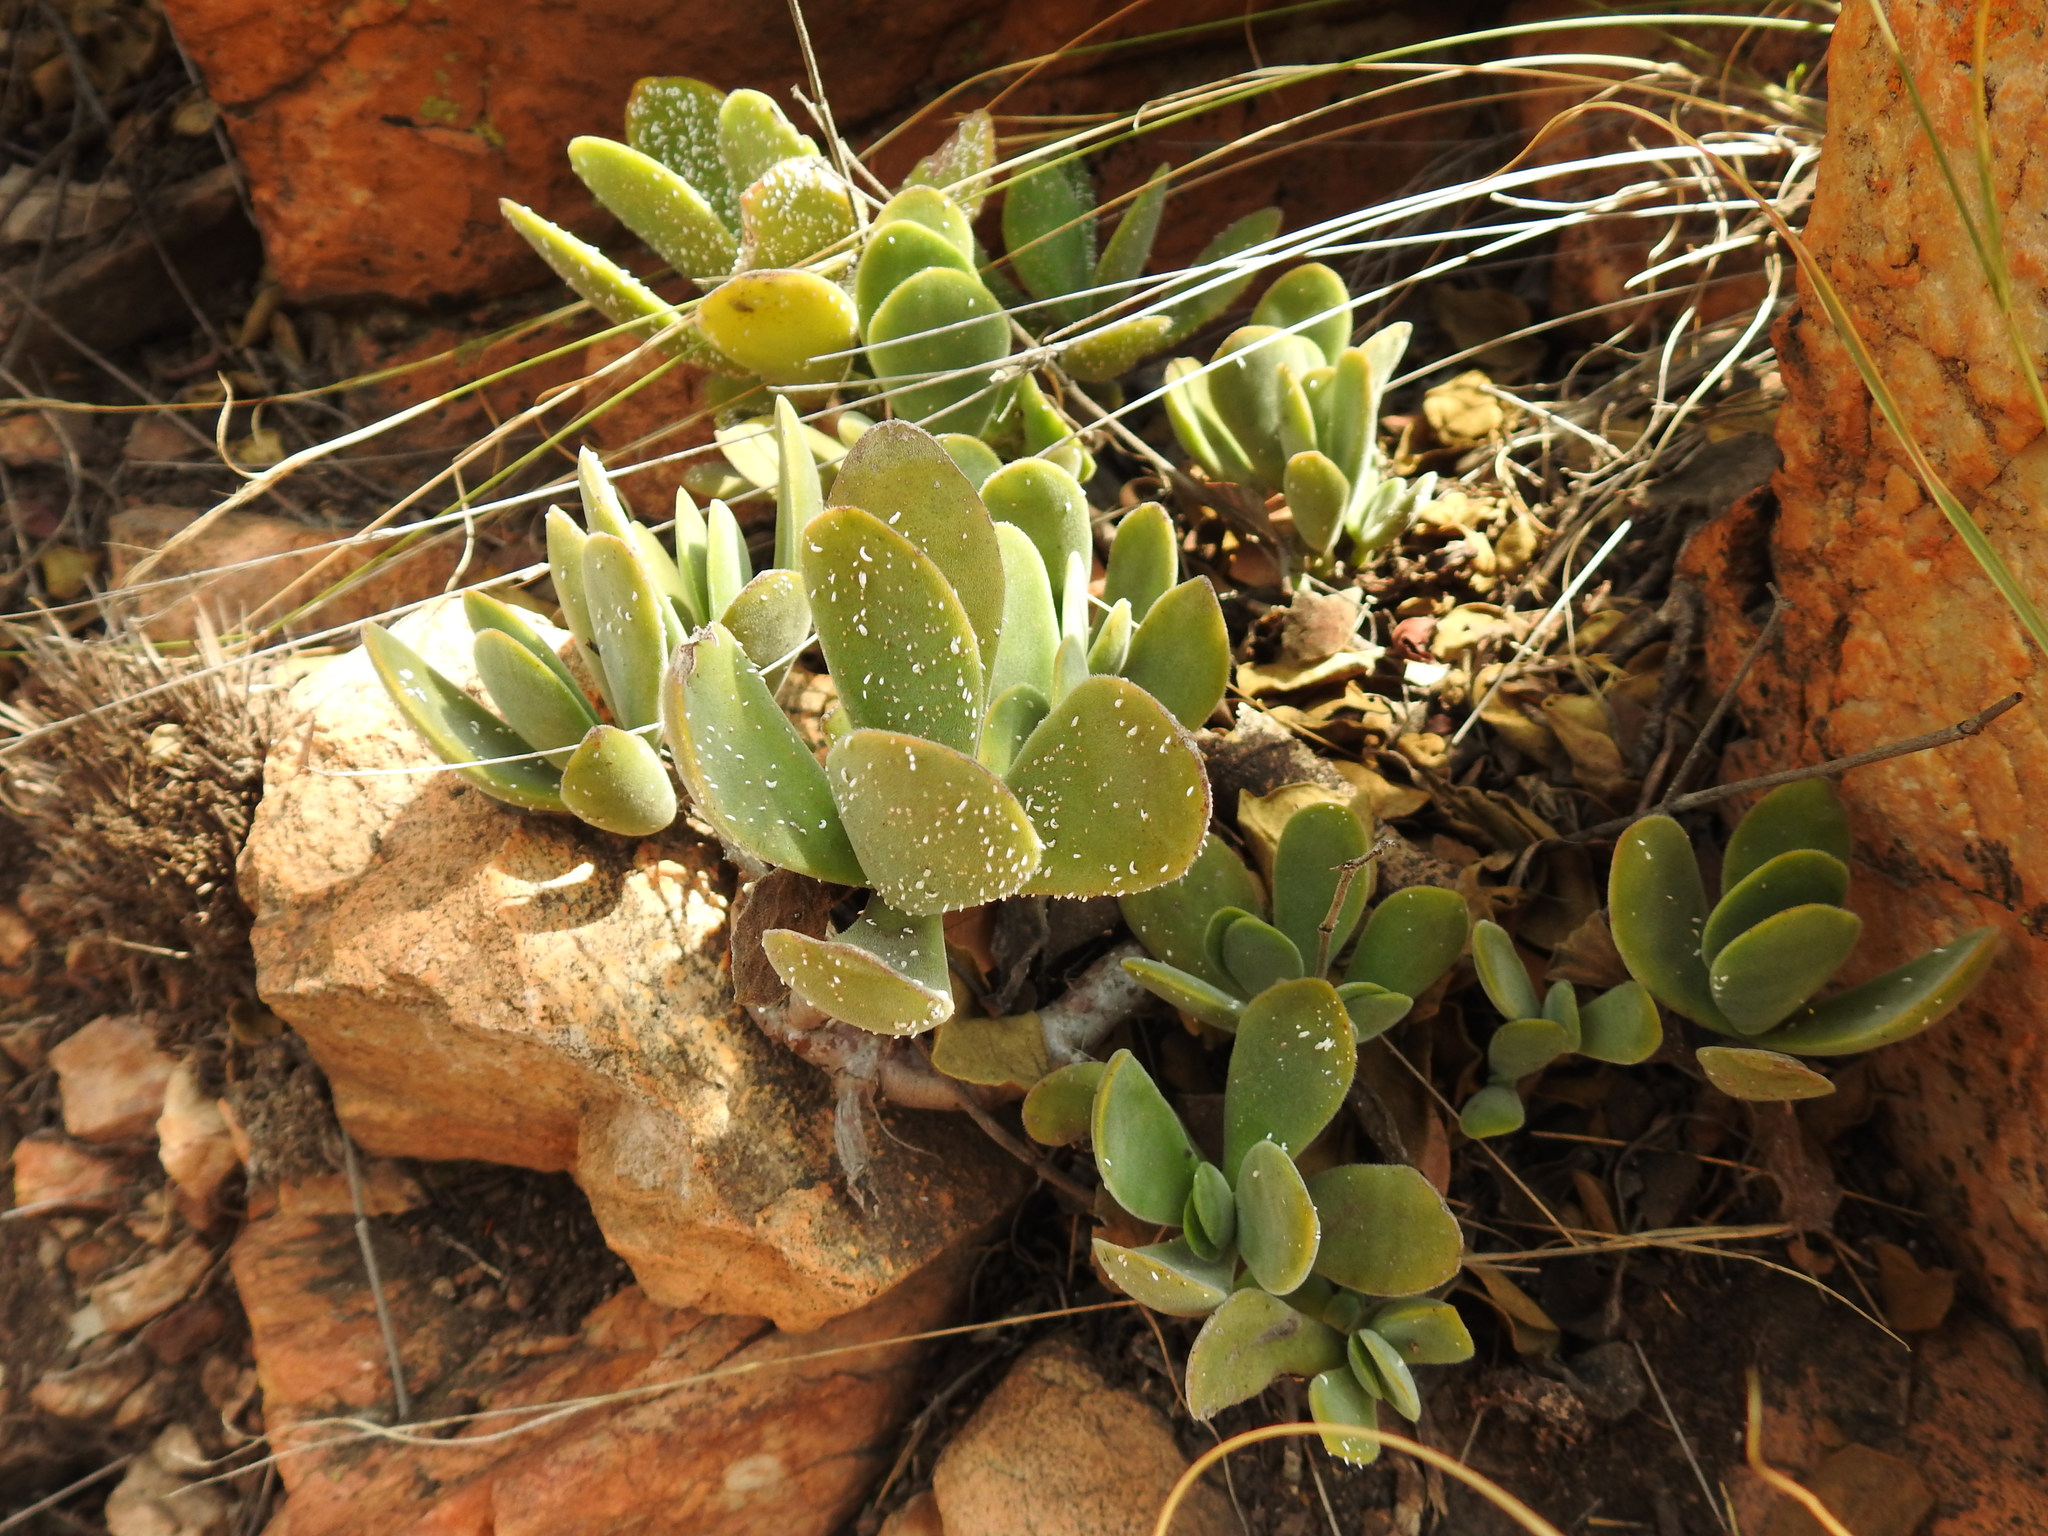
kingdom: Plantae
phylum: Tracheophyta
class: Magnoliopsida
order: Saxifragales
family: Crassulaceae
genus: Crassula
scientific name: Crassula globularioides
